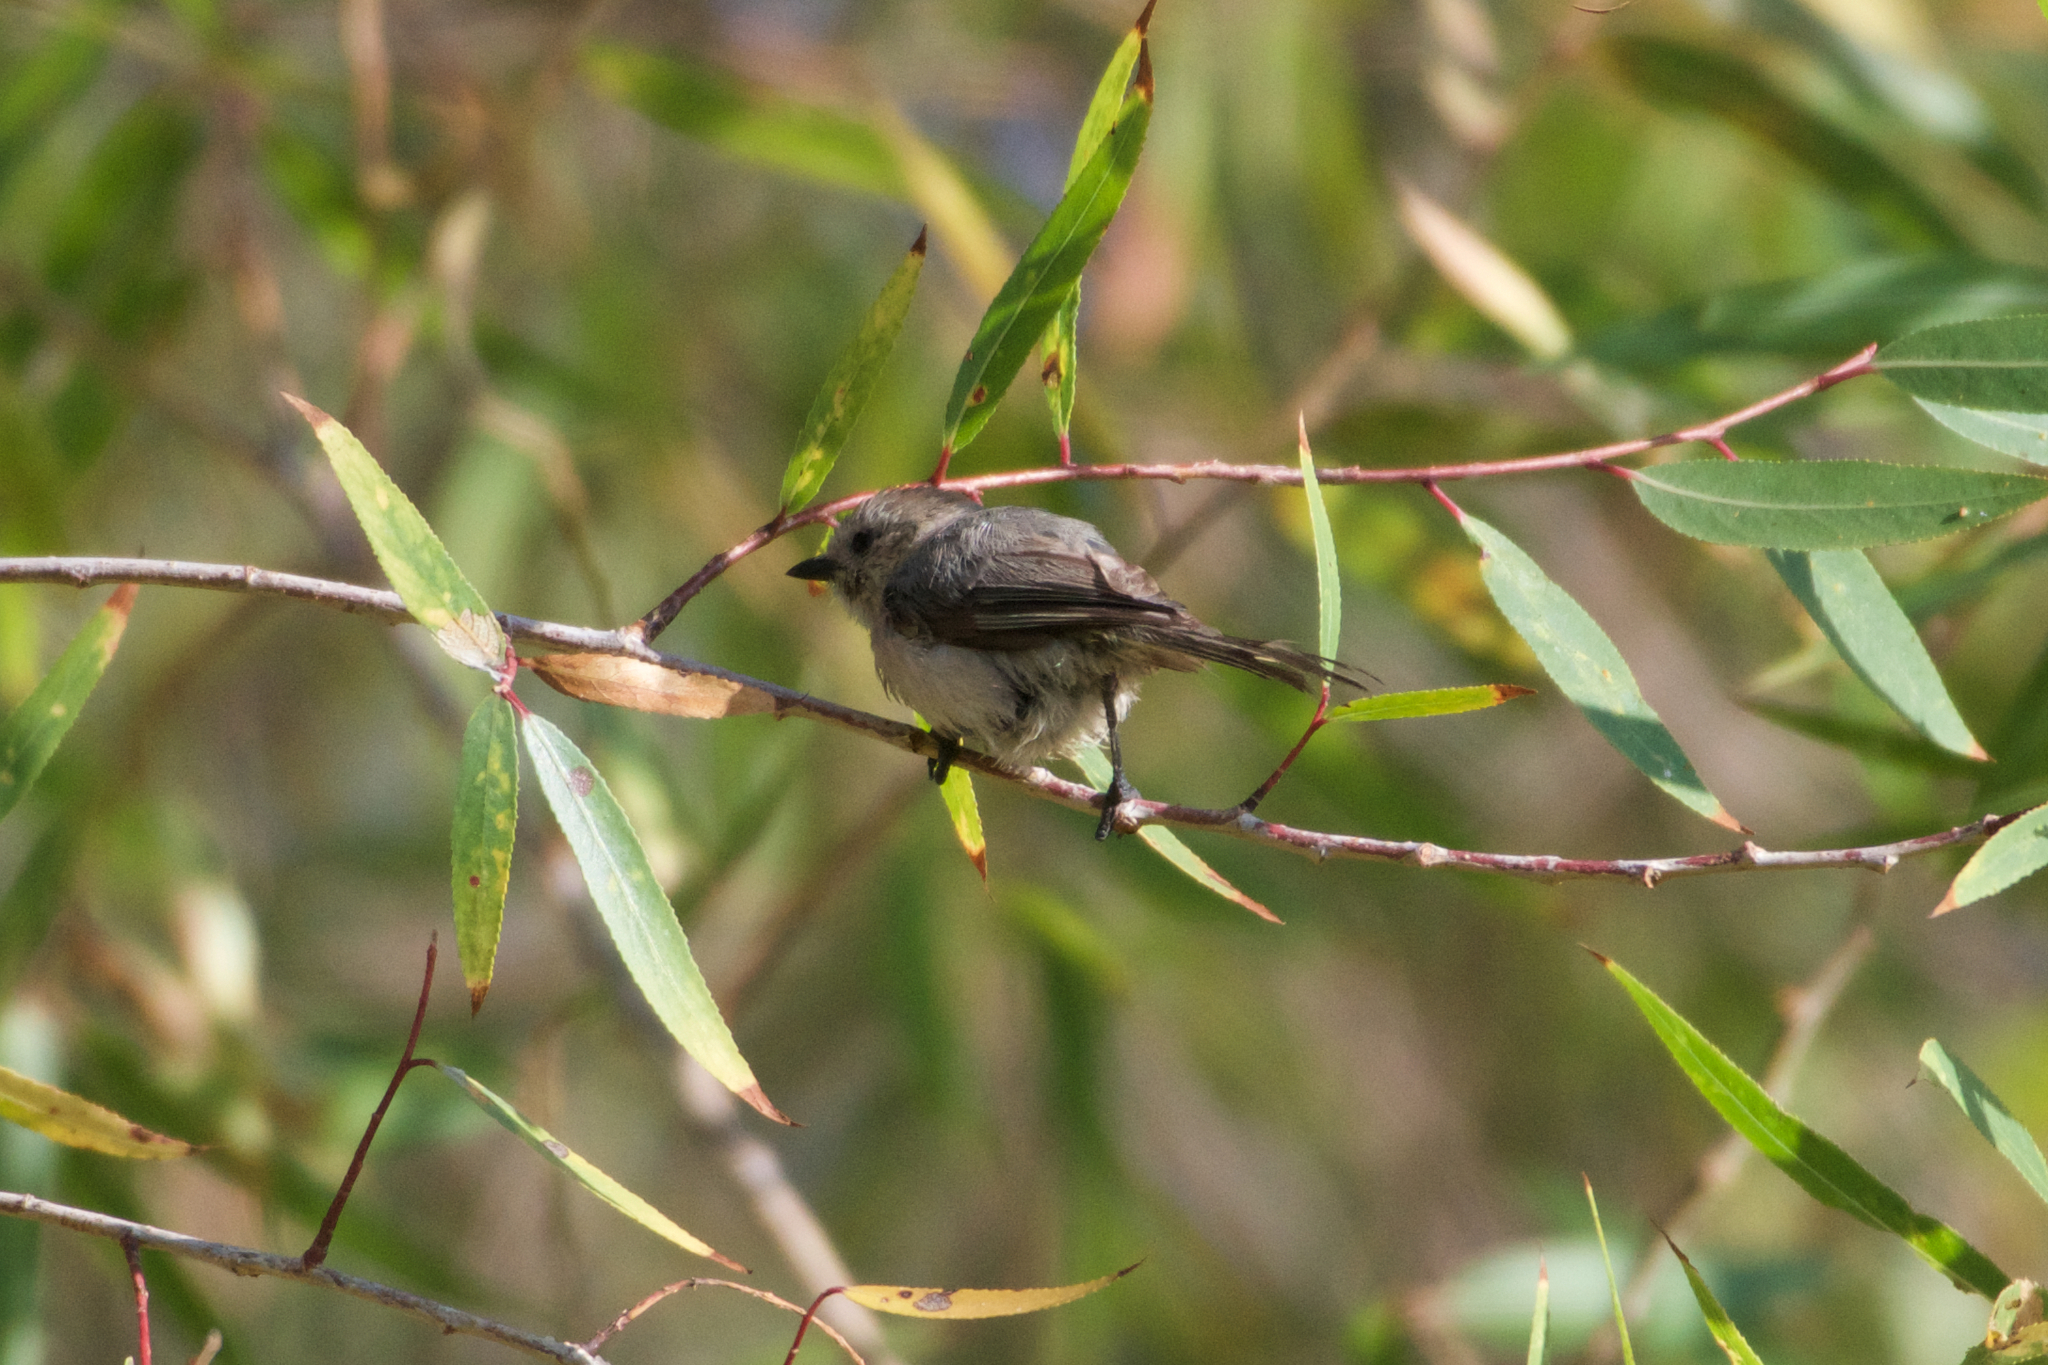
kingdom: Animalia
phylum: Chordata
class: Aves
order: Passeriformes
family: Paridae
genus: Baeolophus
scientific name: Baeolophus inornatus
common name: Oak titmouse
